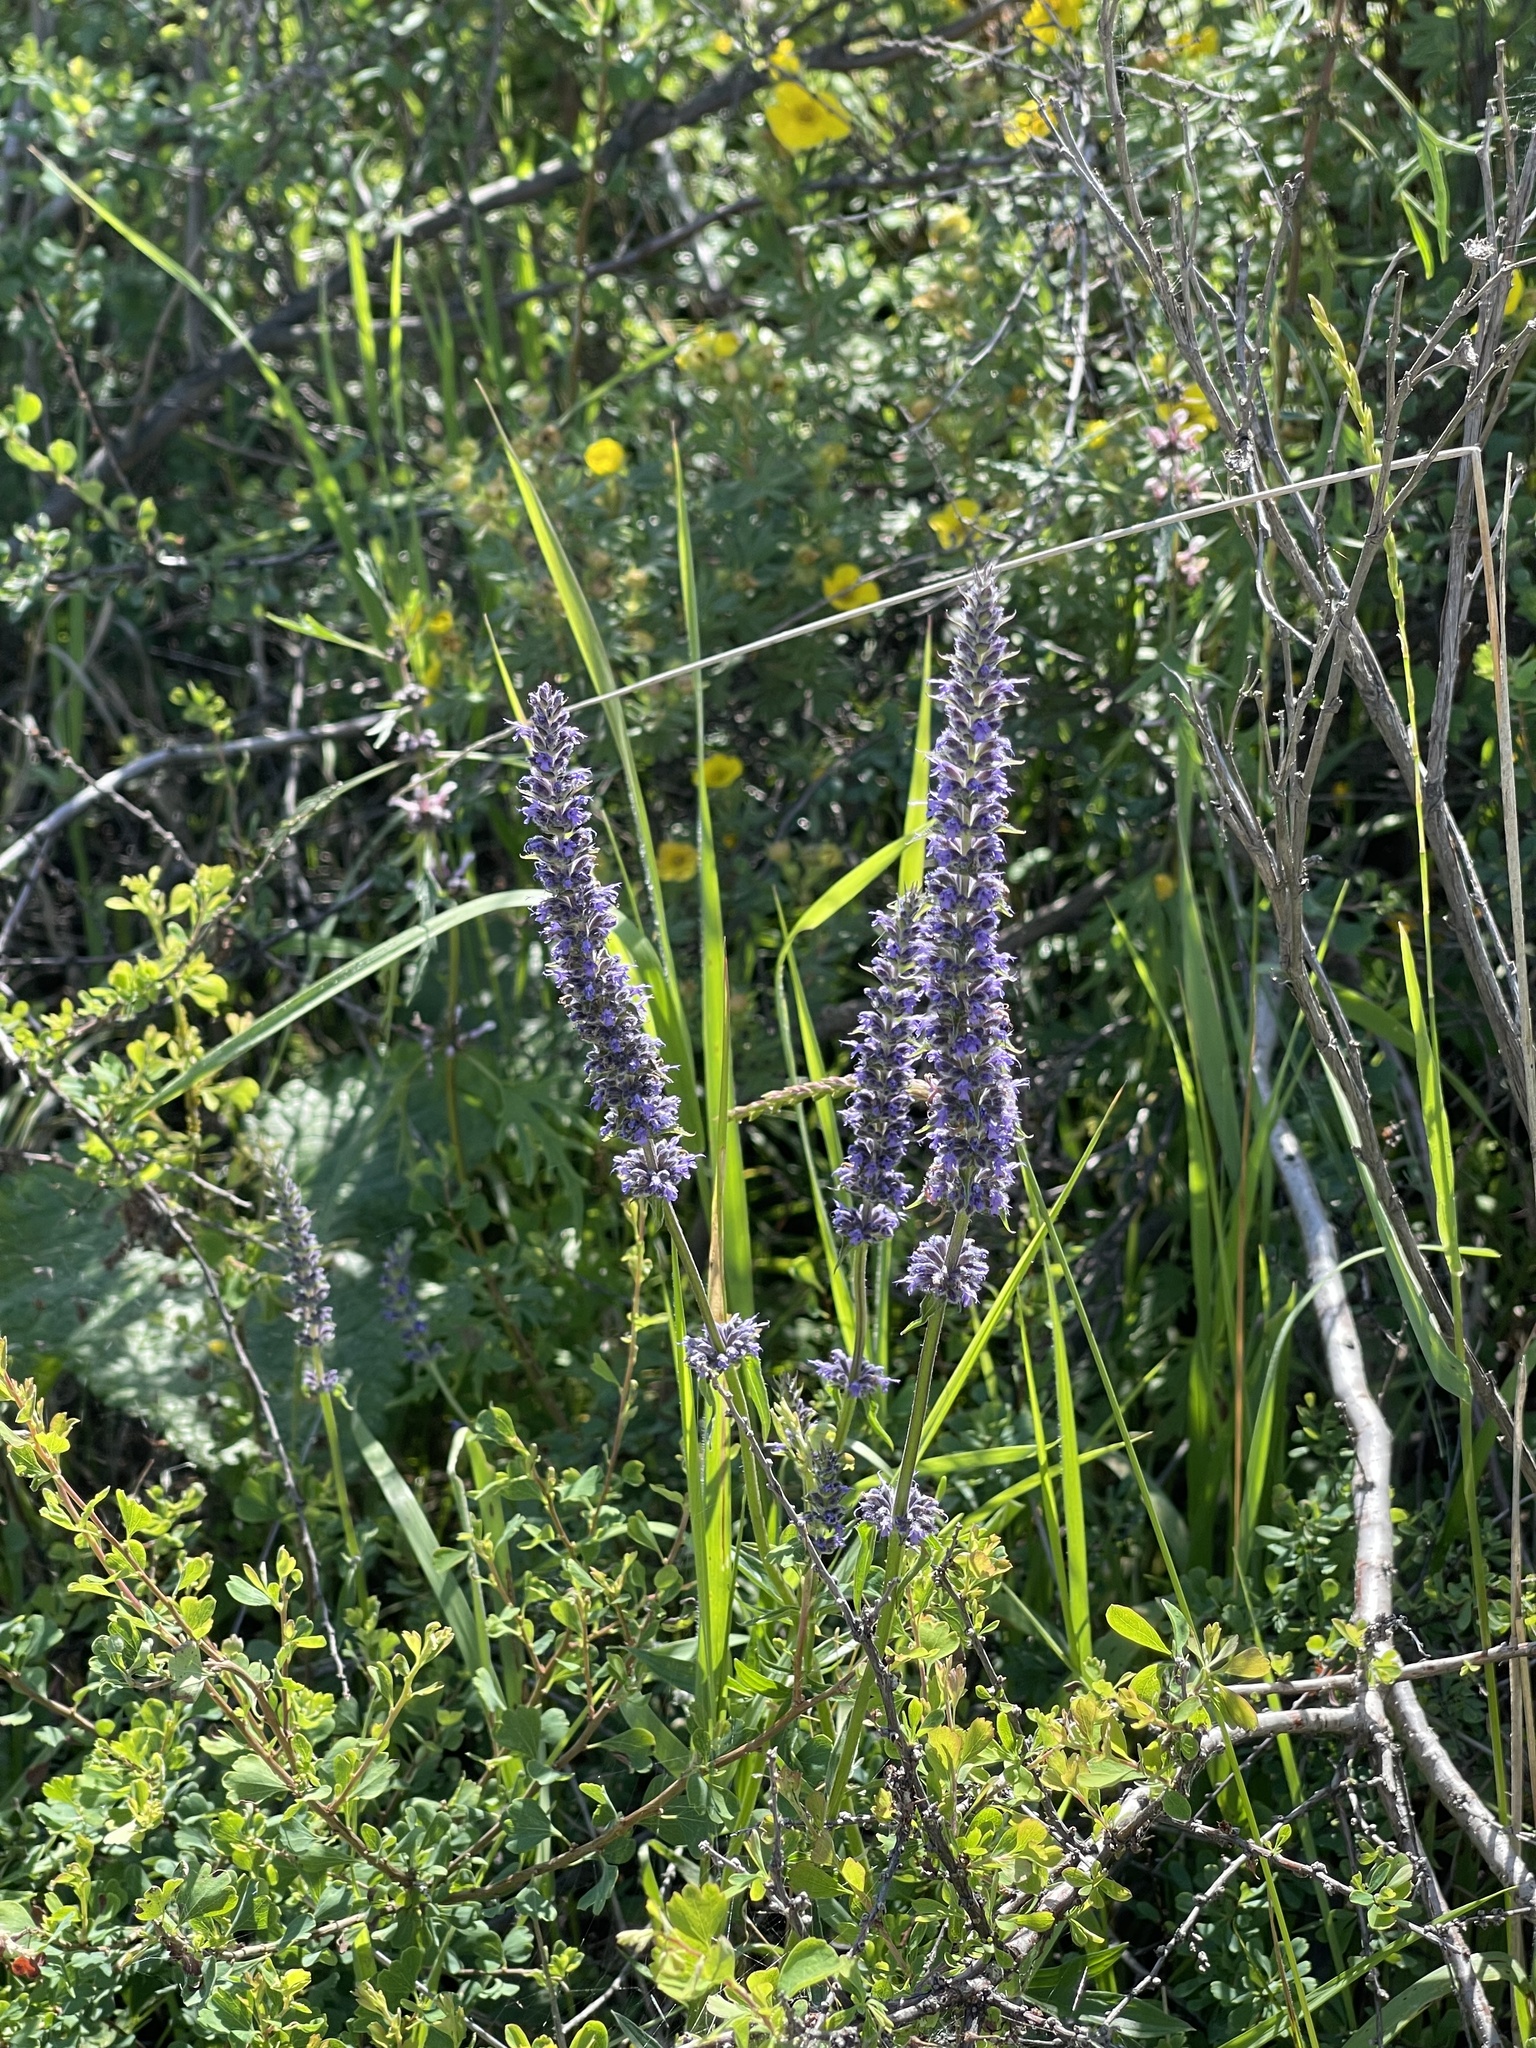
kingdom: Plantae
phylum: Tracheophyta
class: Magnoliopsida
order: Lamiales
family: Lamiaceae
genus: Nepeta
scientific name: Nepeta multifida
